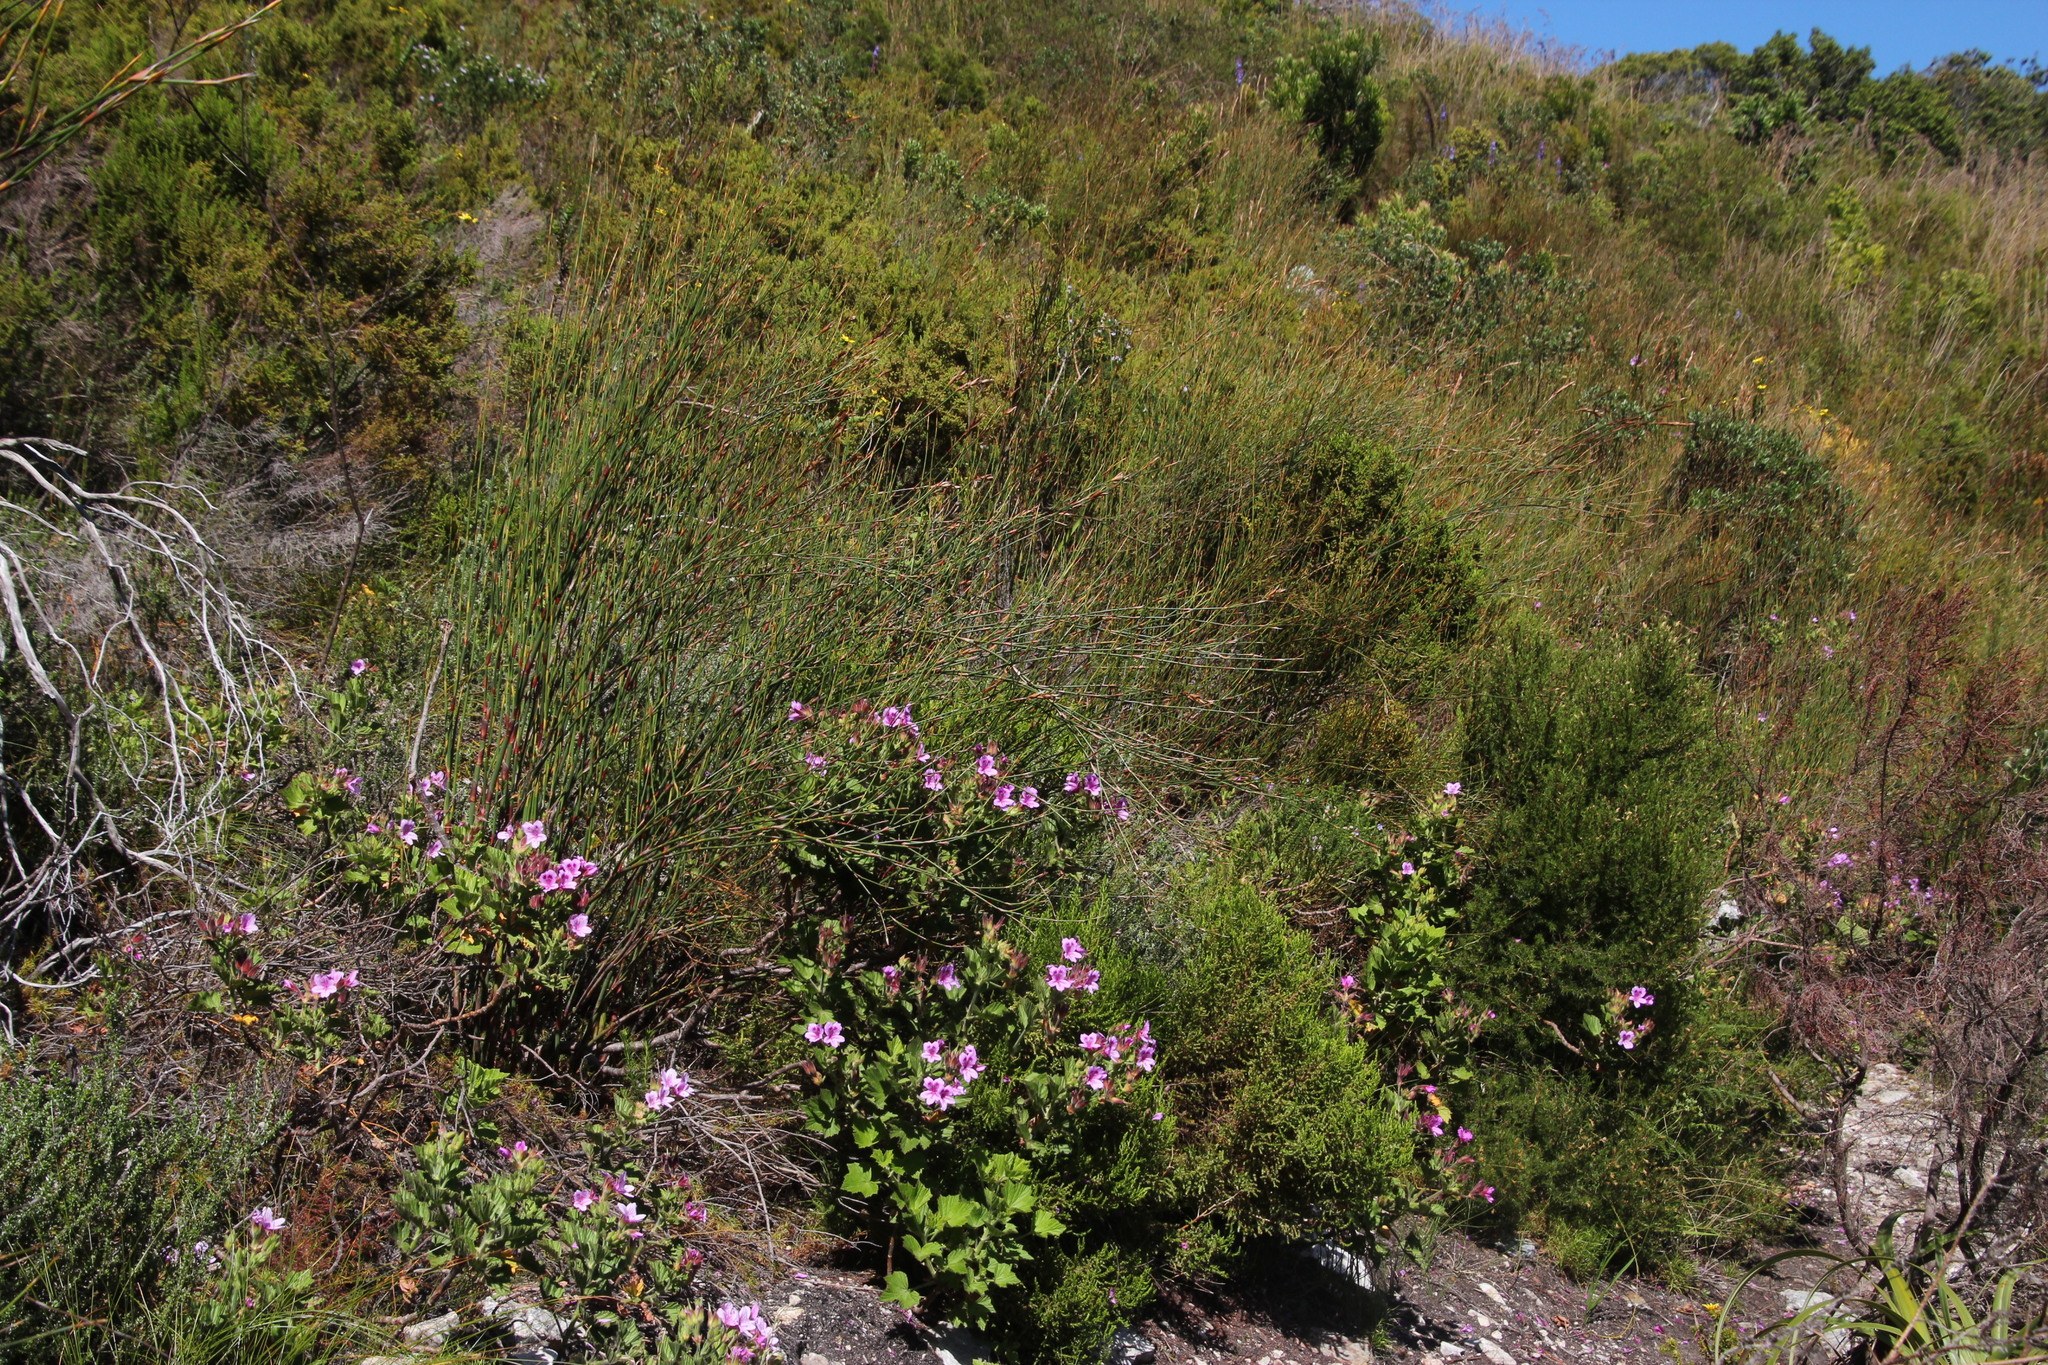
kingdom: Plantae
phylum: Tracheophyta
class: Magnoliopsida
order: Geraniales
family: Geraniaceae
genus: Pelargonium
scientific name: Pelargonium cucullatum
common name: Tree pelargonium
